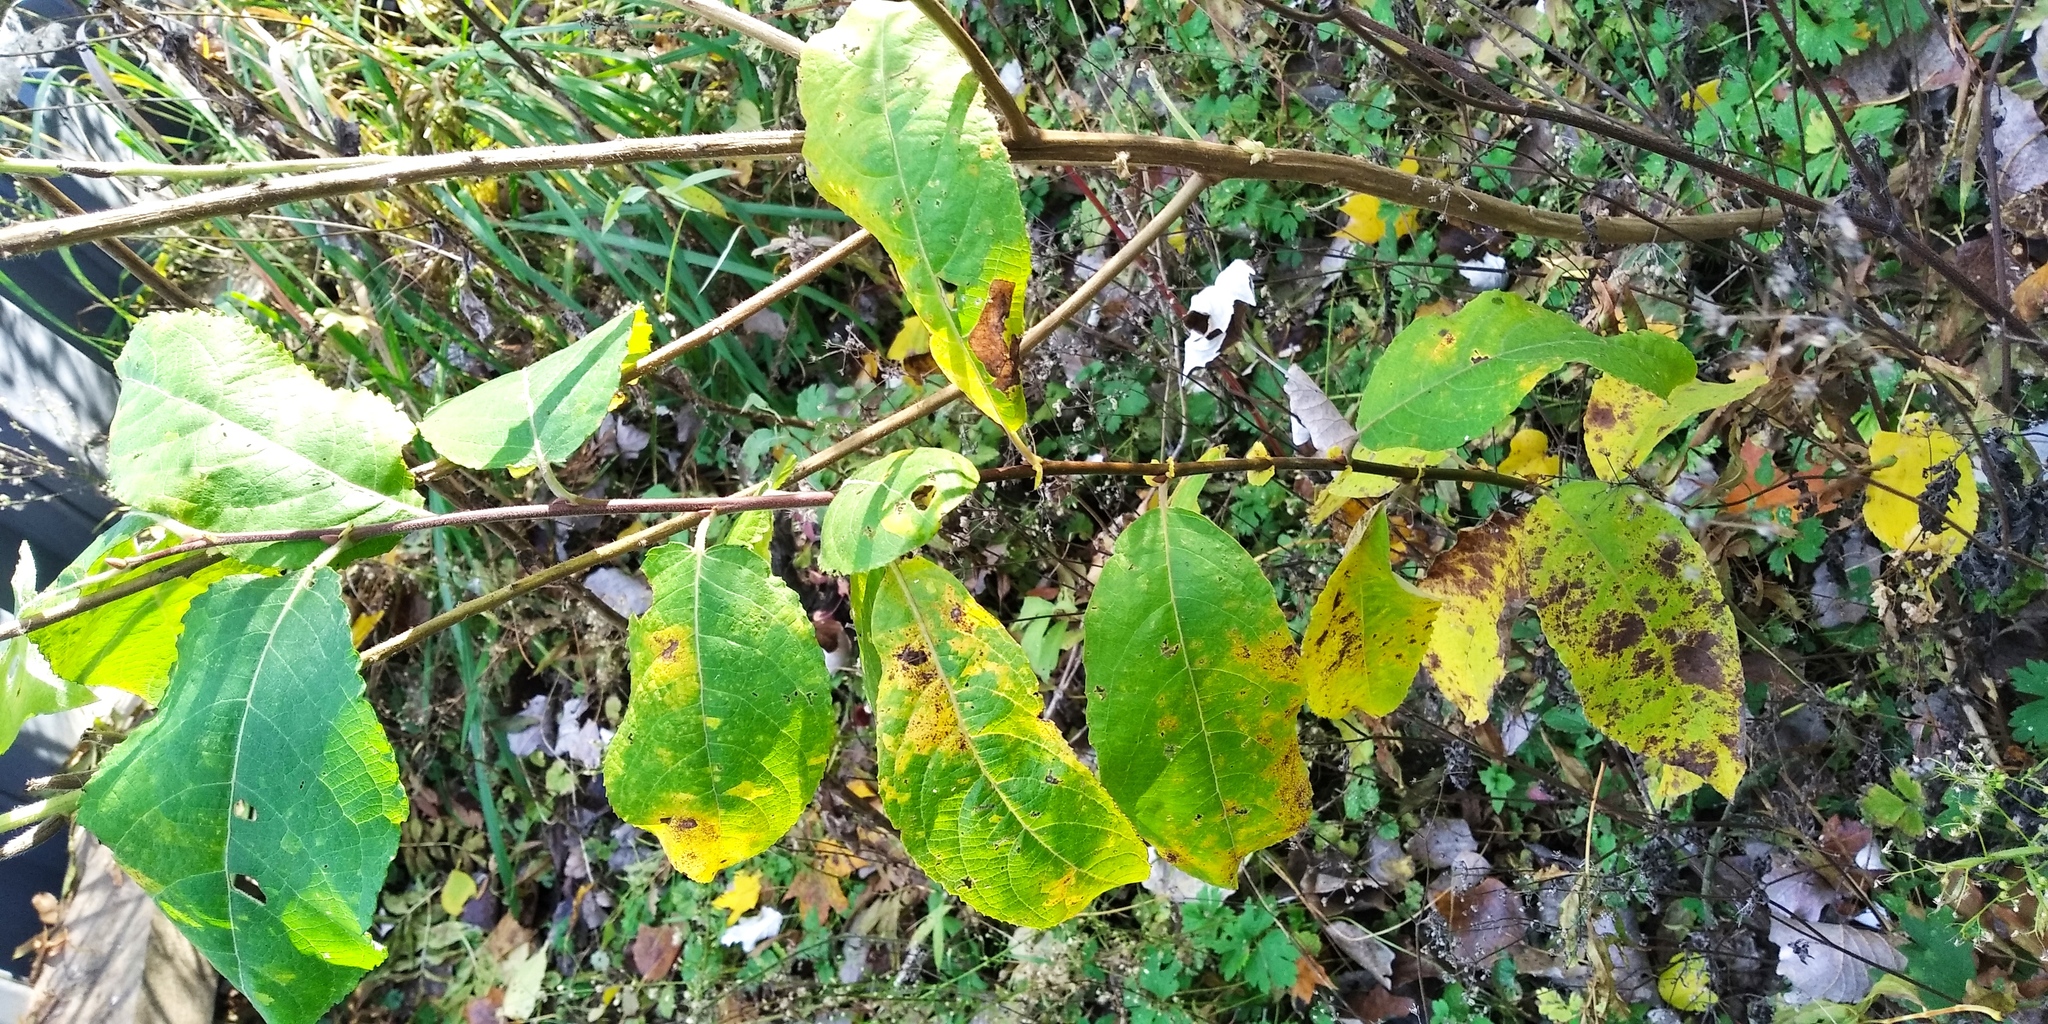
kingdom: Plantae
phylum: Tracheophyta
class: Magnoliopsida
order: Malpighiales
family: Salicaceae
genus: Salix
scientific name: Salix caprea
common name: Goat willow
